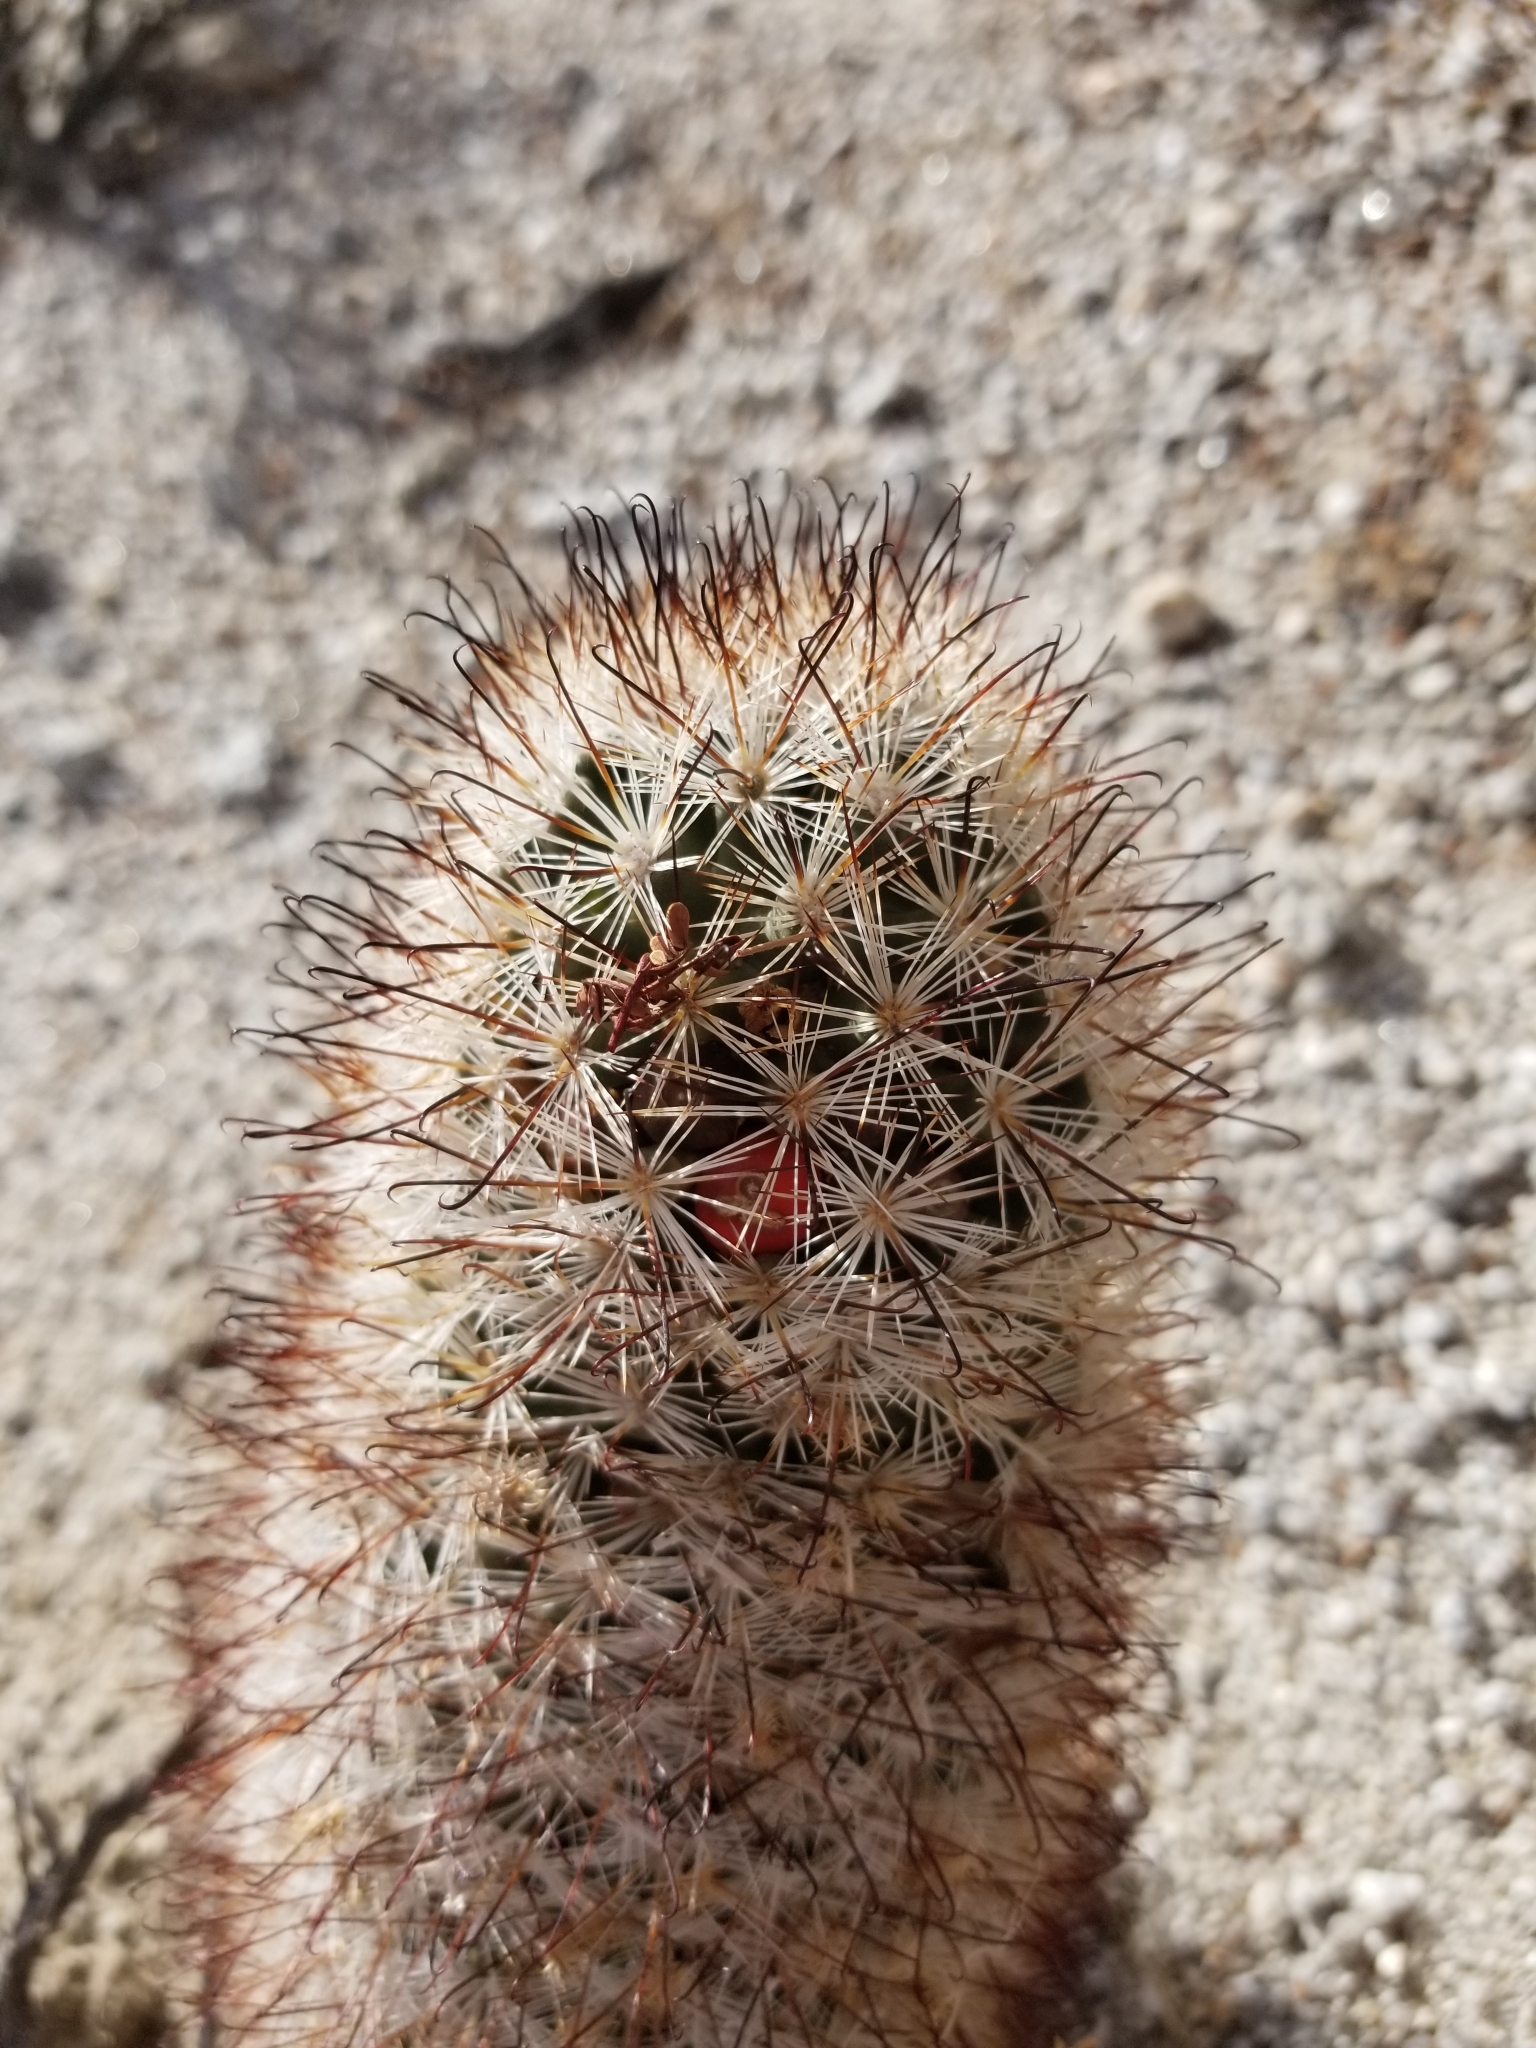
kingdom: Plantae
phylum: Tracheophyta
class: Magnoliopsida
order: Caryophyllales
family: Cactaceae
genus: Cochemiea
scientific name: Cochemiea tetrancistra
